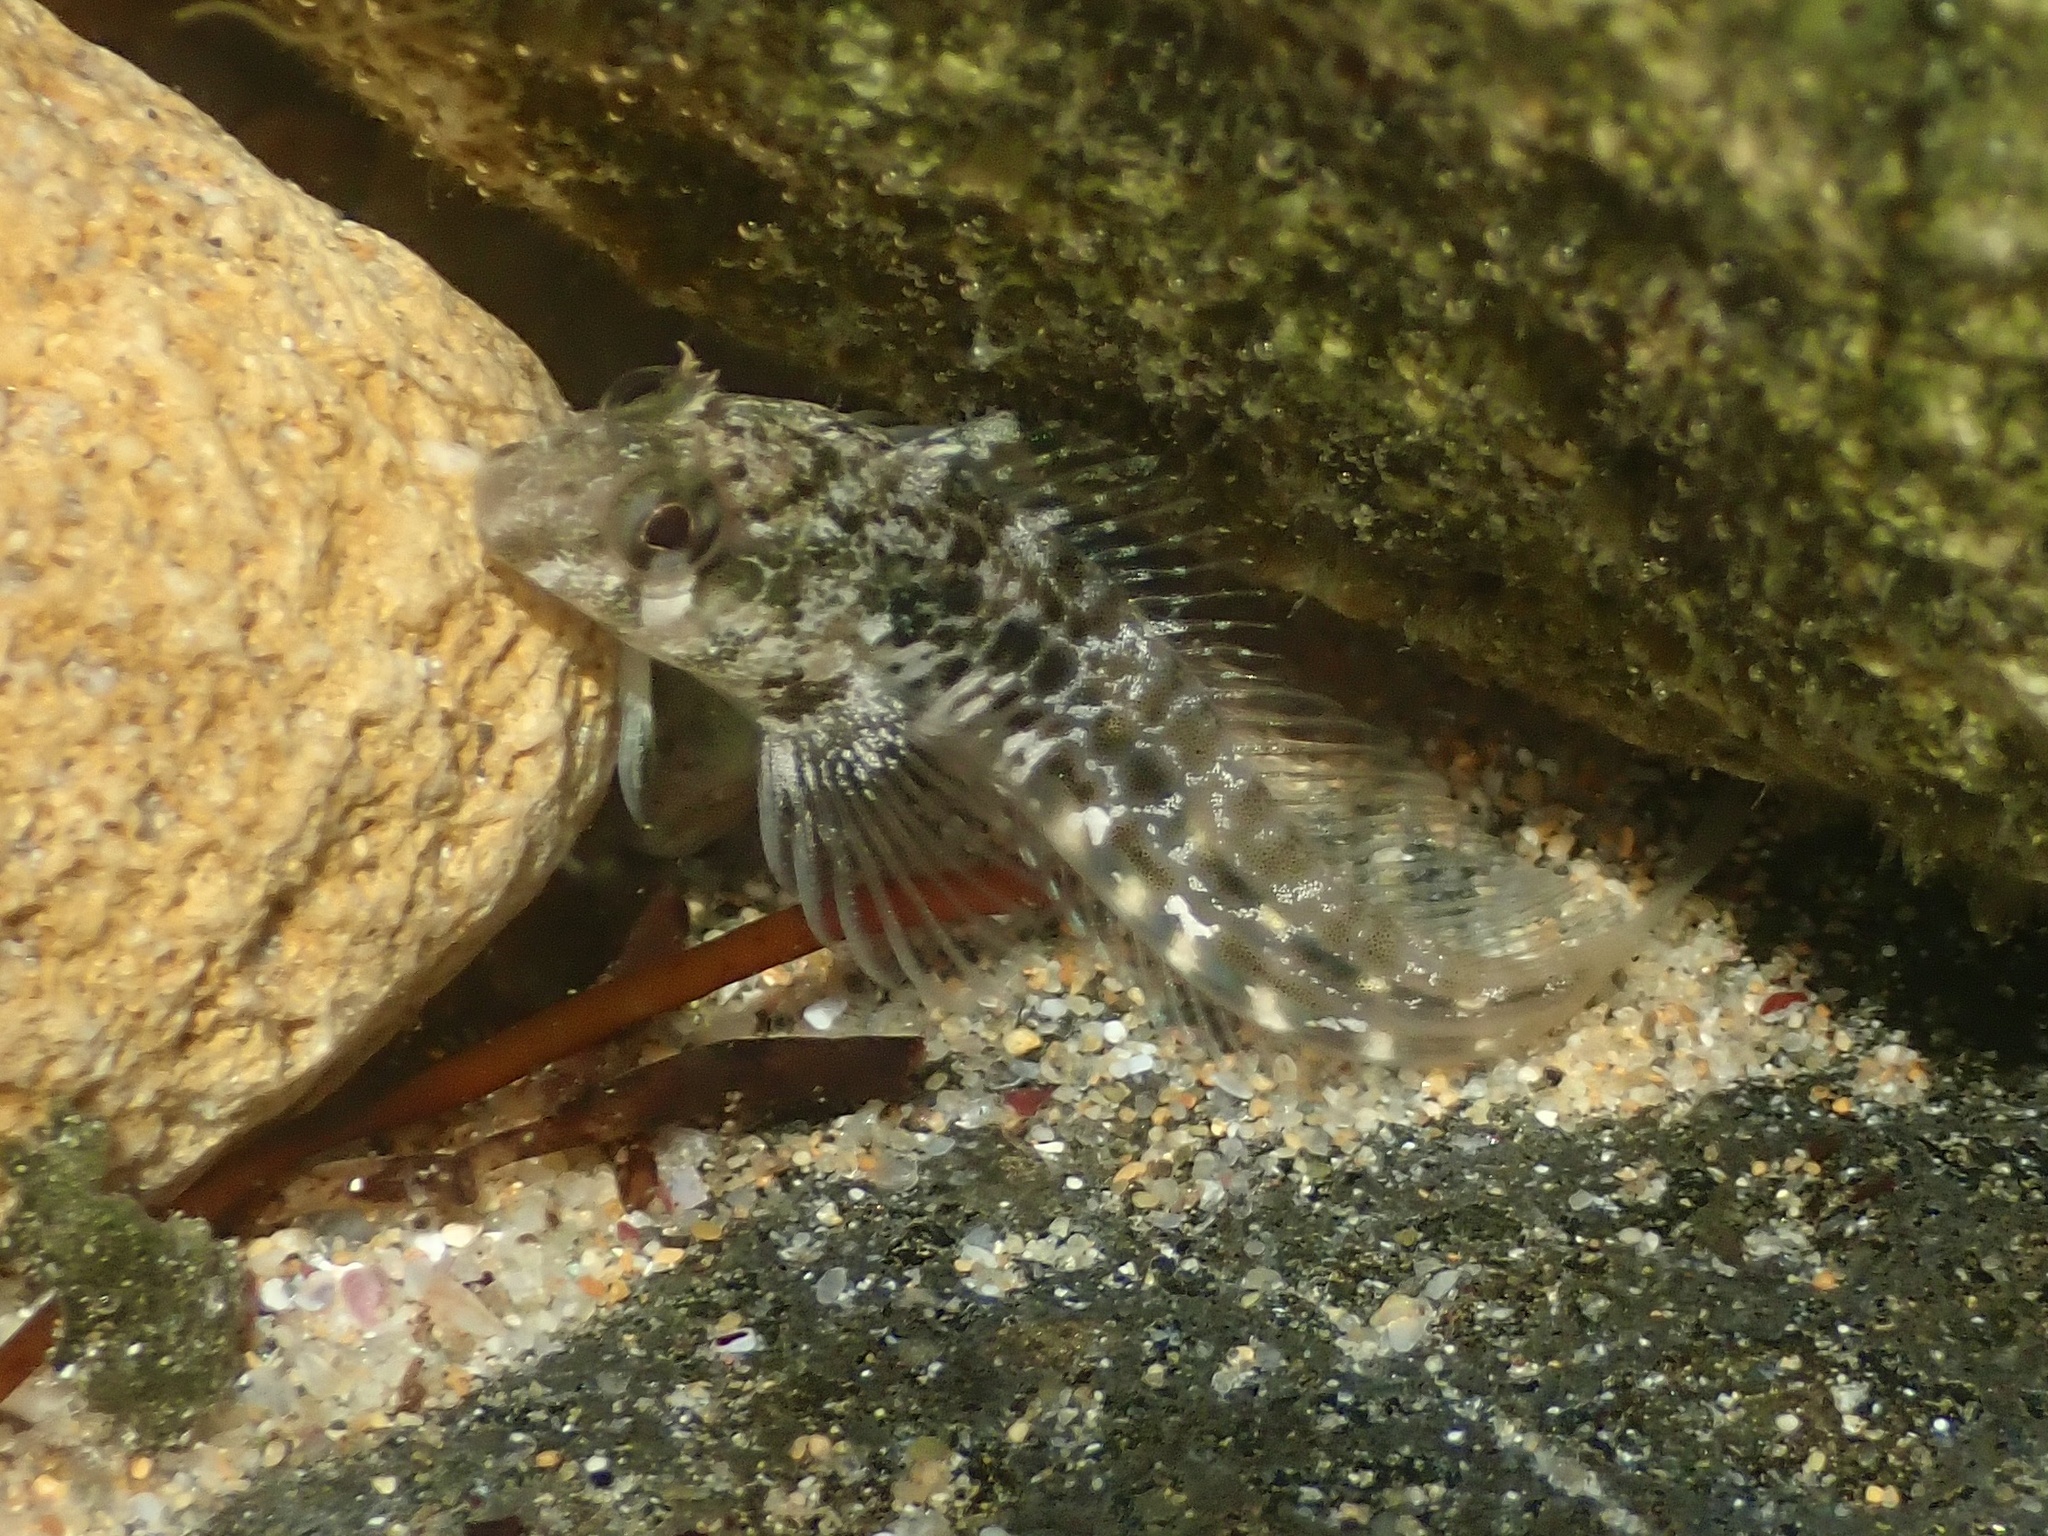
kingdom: Animalia
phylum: Chordata
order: Perciformes
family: Blenniidae
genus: Parablennius
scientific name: Parablennius tasmanianus
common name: Tasmanian blenny
